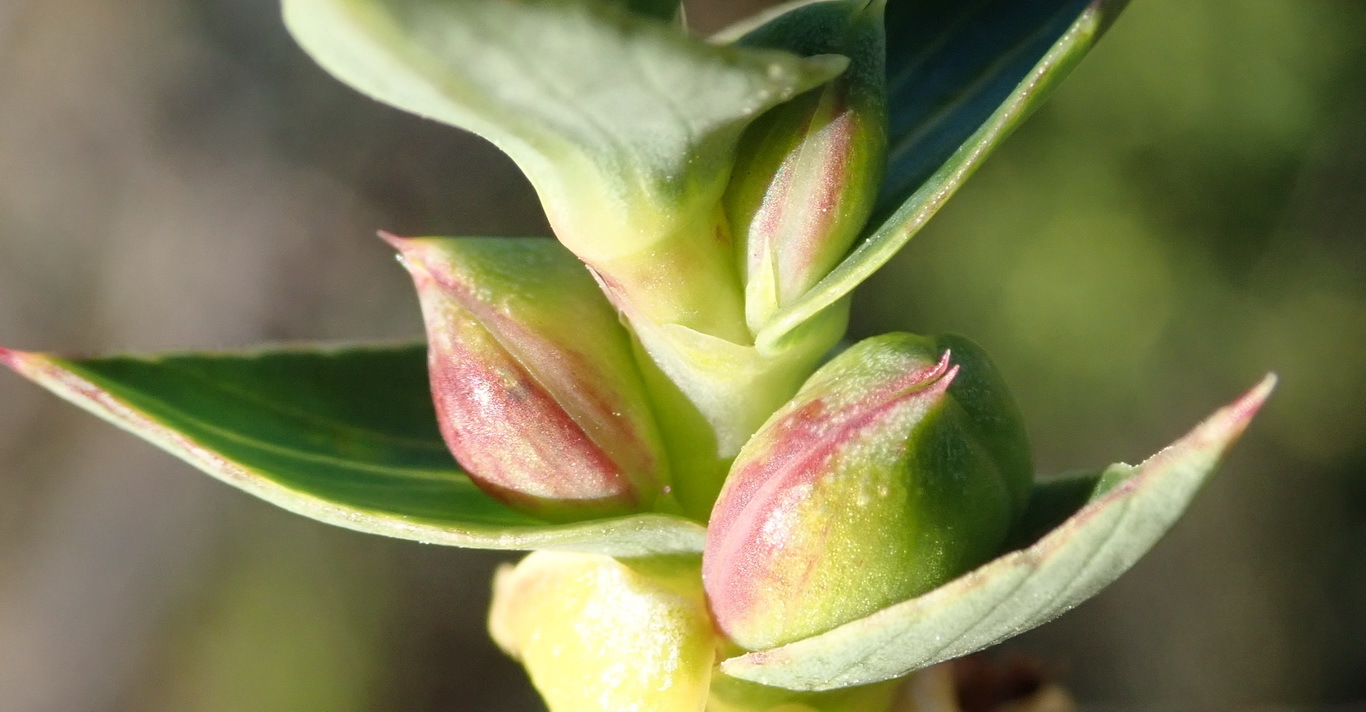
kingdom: Plantae
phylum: Tracheophyta
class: Magnoliopsida
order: Rosales
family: Rosaceae
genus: Cliffortia
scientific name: Cliffortia ilicifolia
